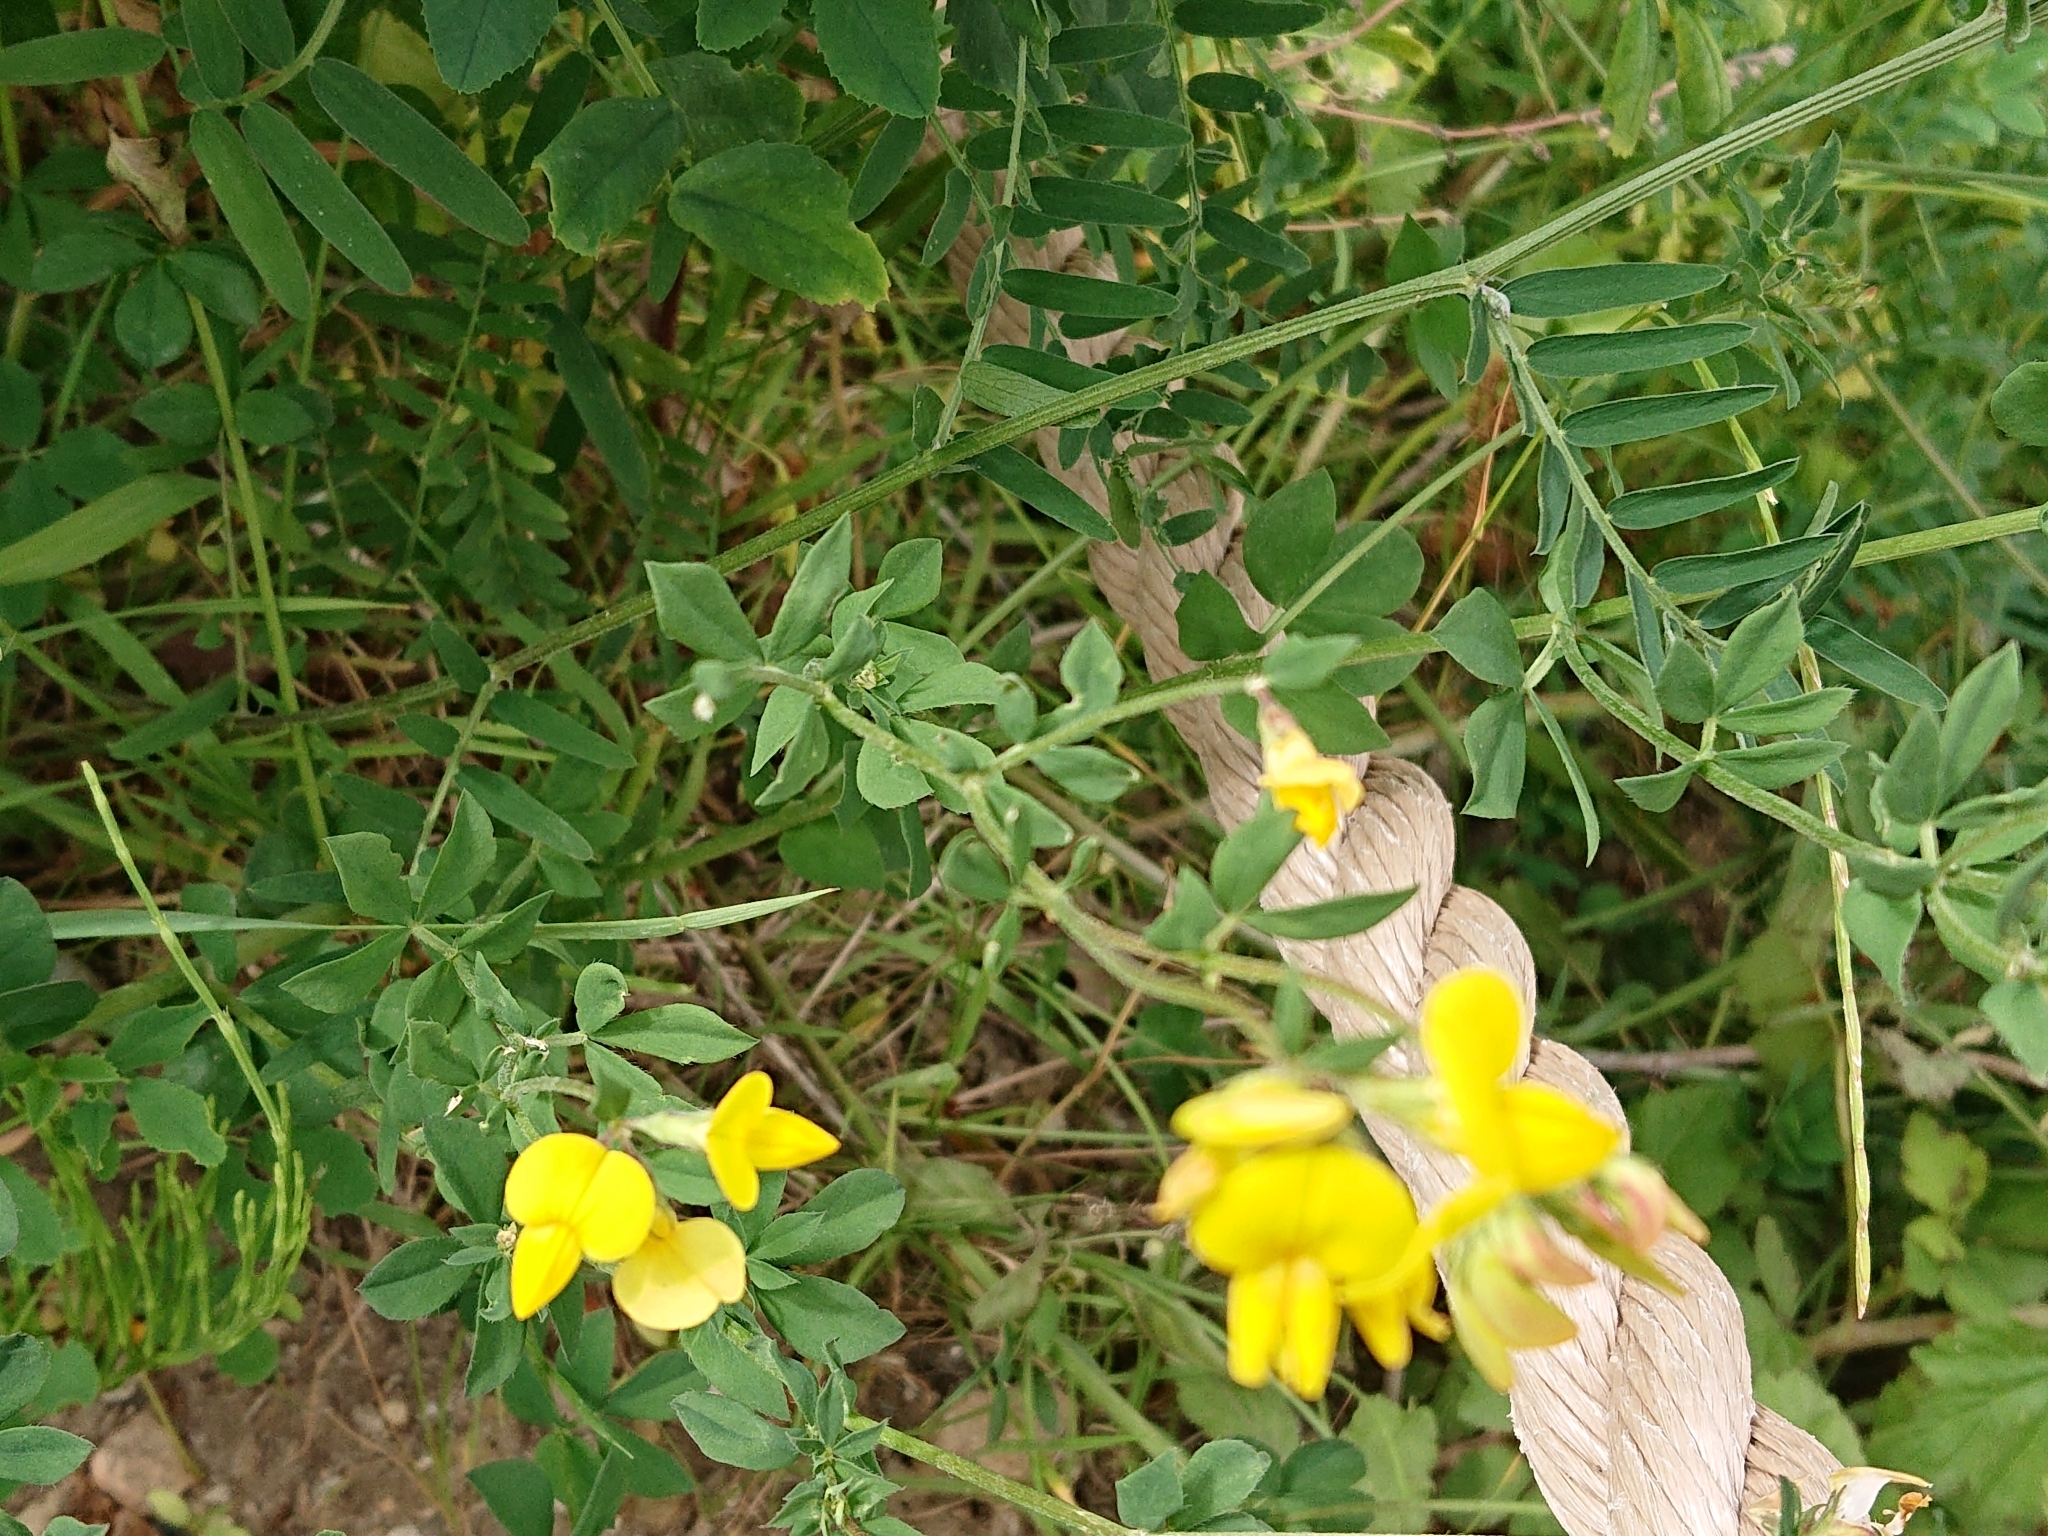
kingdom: Plantae
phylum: Tracheophyta
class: Magnoliopsida
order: Fabales
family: Fabaceae
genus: Lotus
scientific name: Lotus corniculatus
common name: Common bird's-foot-trefoil
